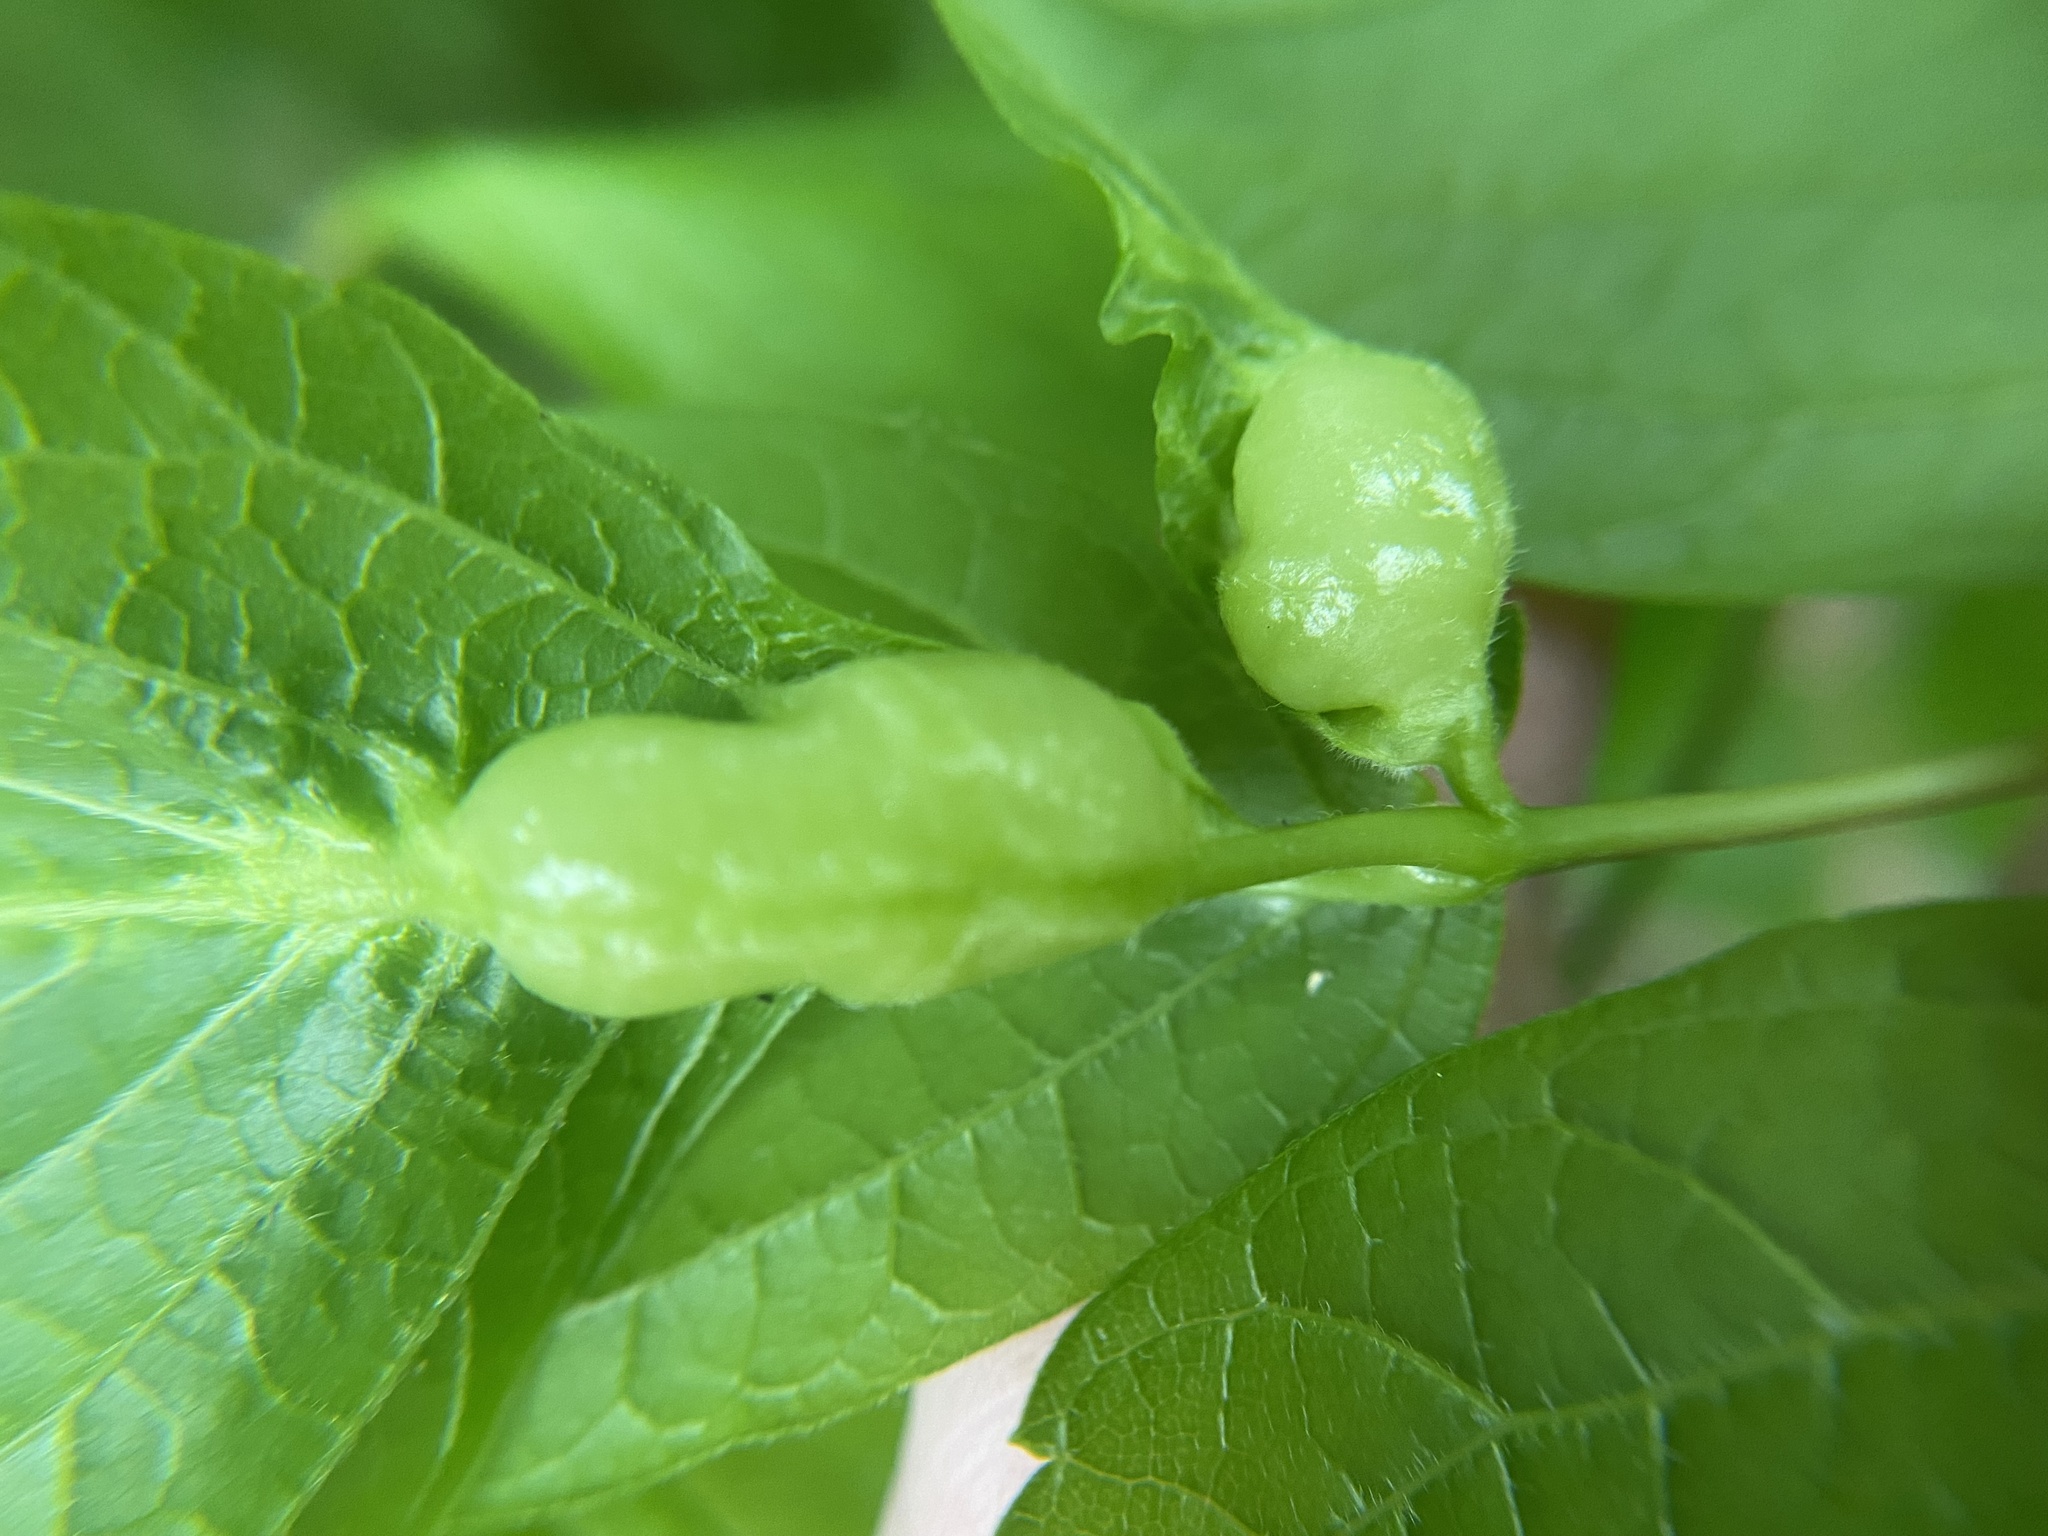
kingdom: Animalia
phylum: Arthropoda
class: Insecta
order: Diptera
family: Cecidomyiidae
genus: Contarinia
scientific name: Contarinia negundinis
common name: Boxelder budgall midge
